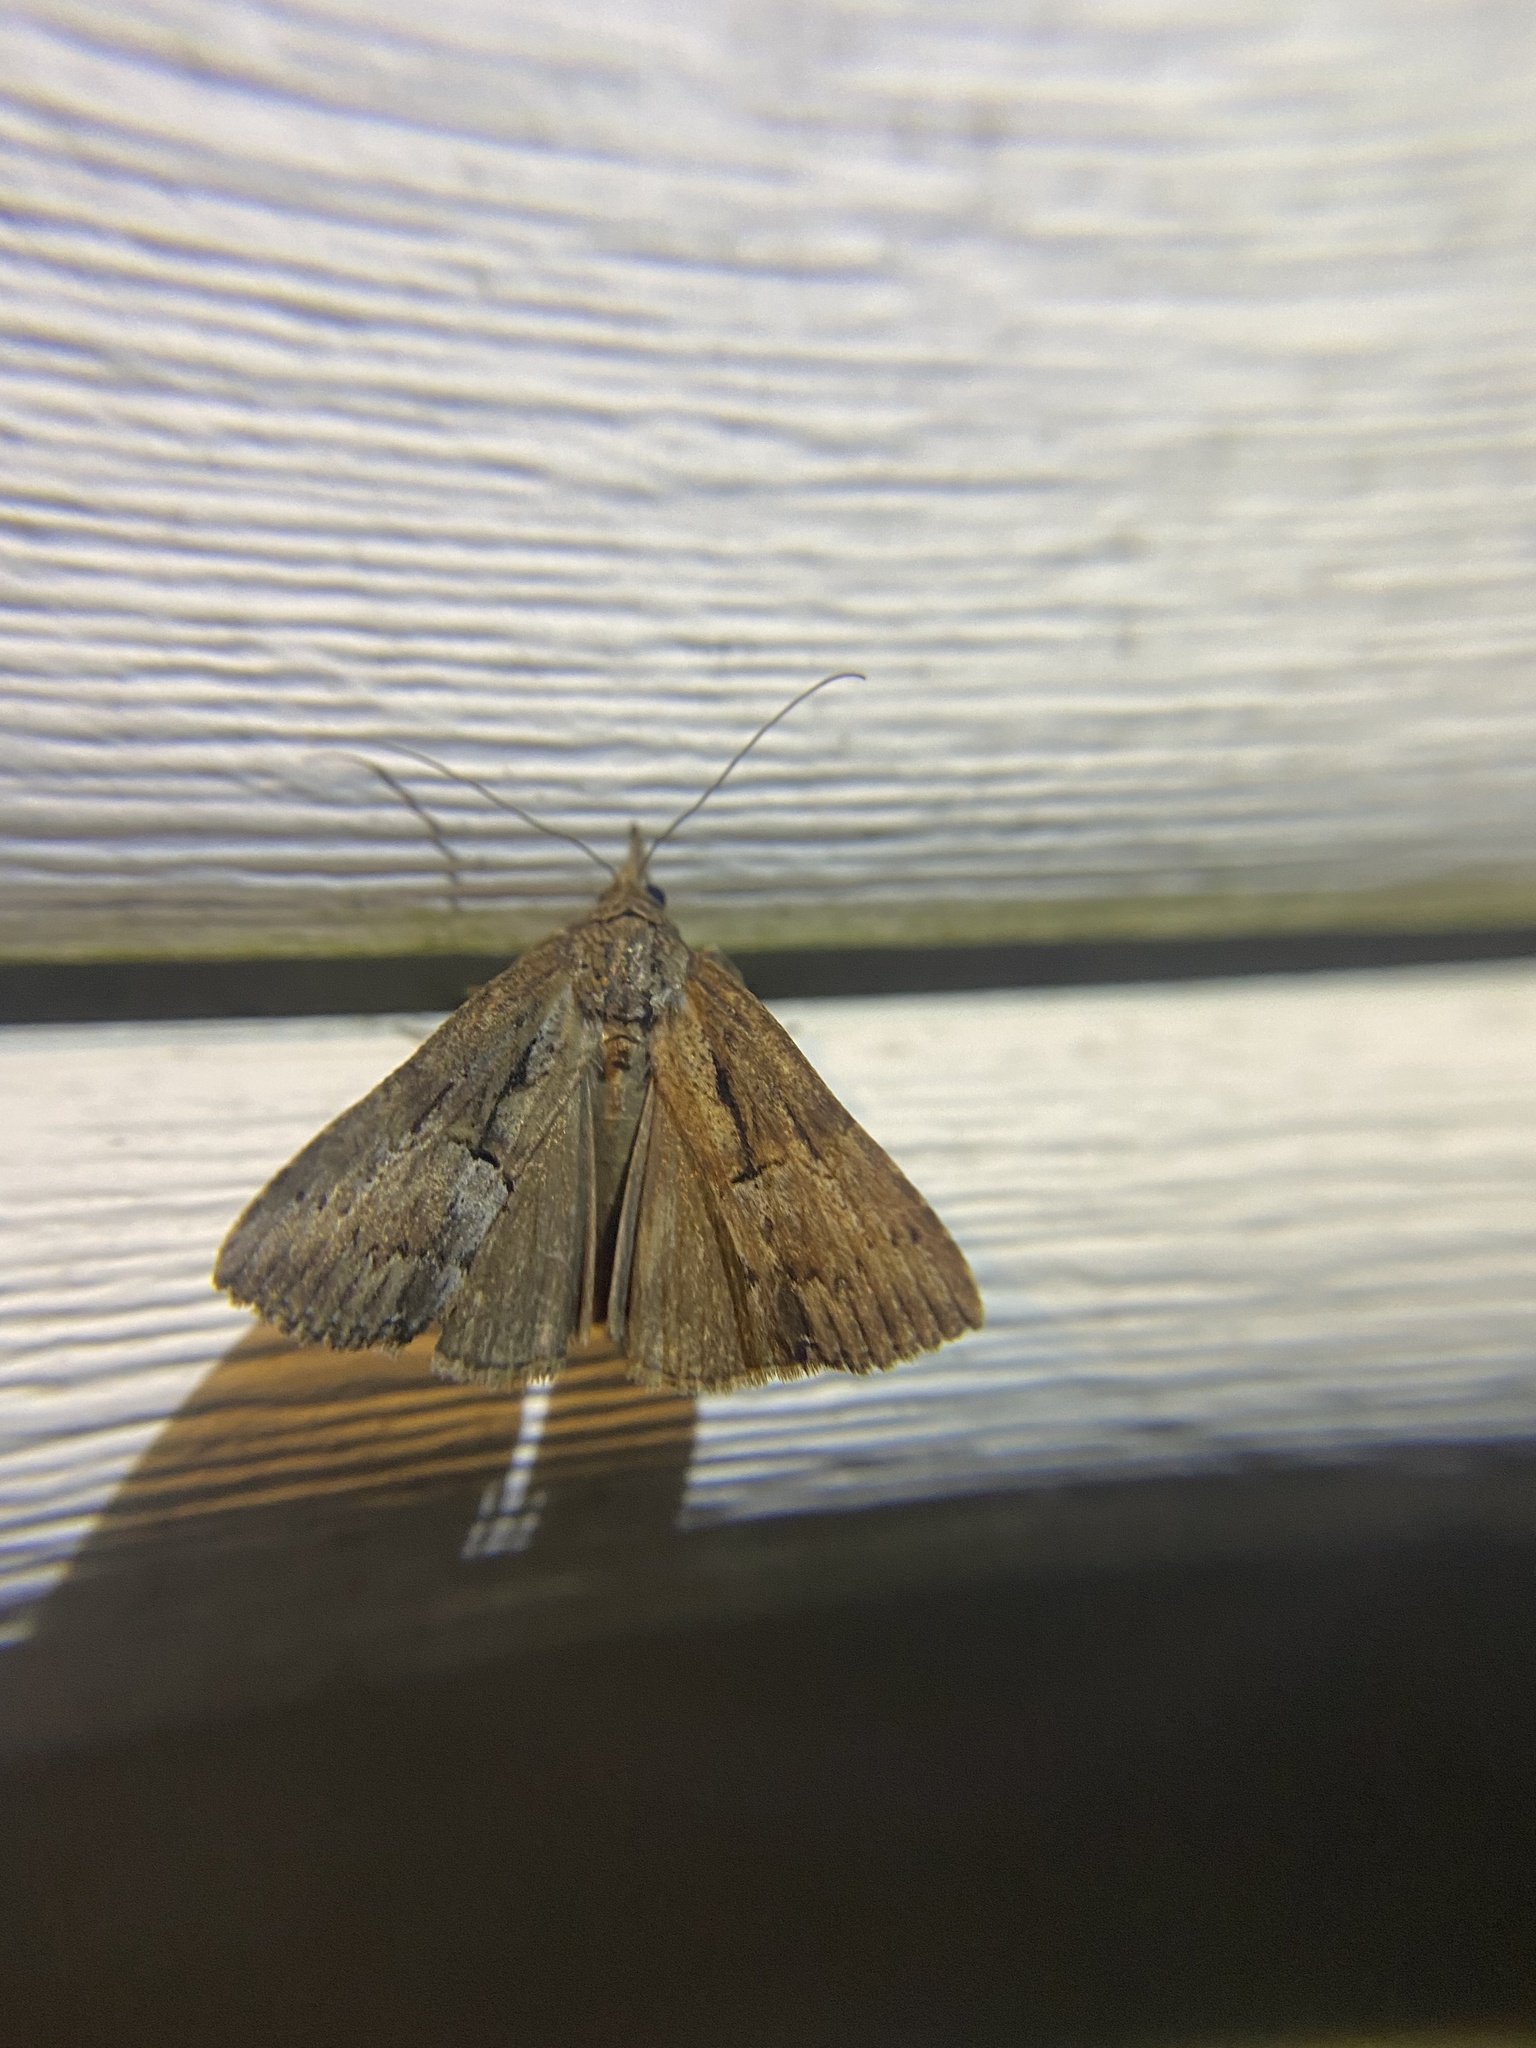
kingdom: Animalia
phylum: Arthropoda
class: Insecta
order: Lepidoptera
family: Erebidae
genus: Hypena
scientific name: Hypena scabra
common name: Green cloverworm
